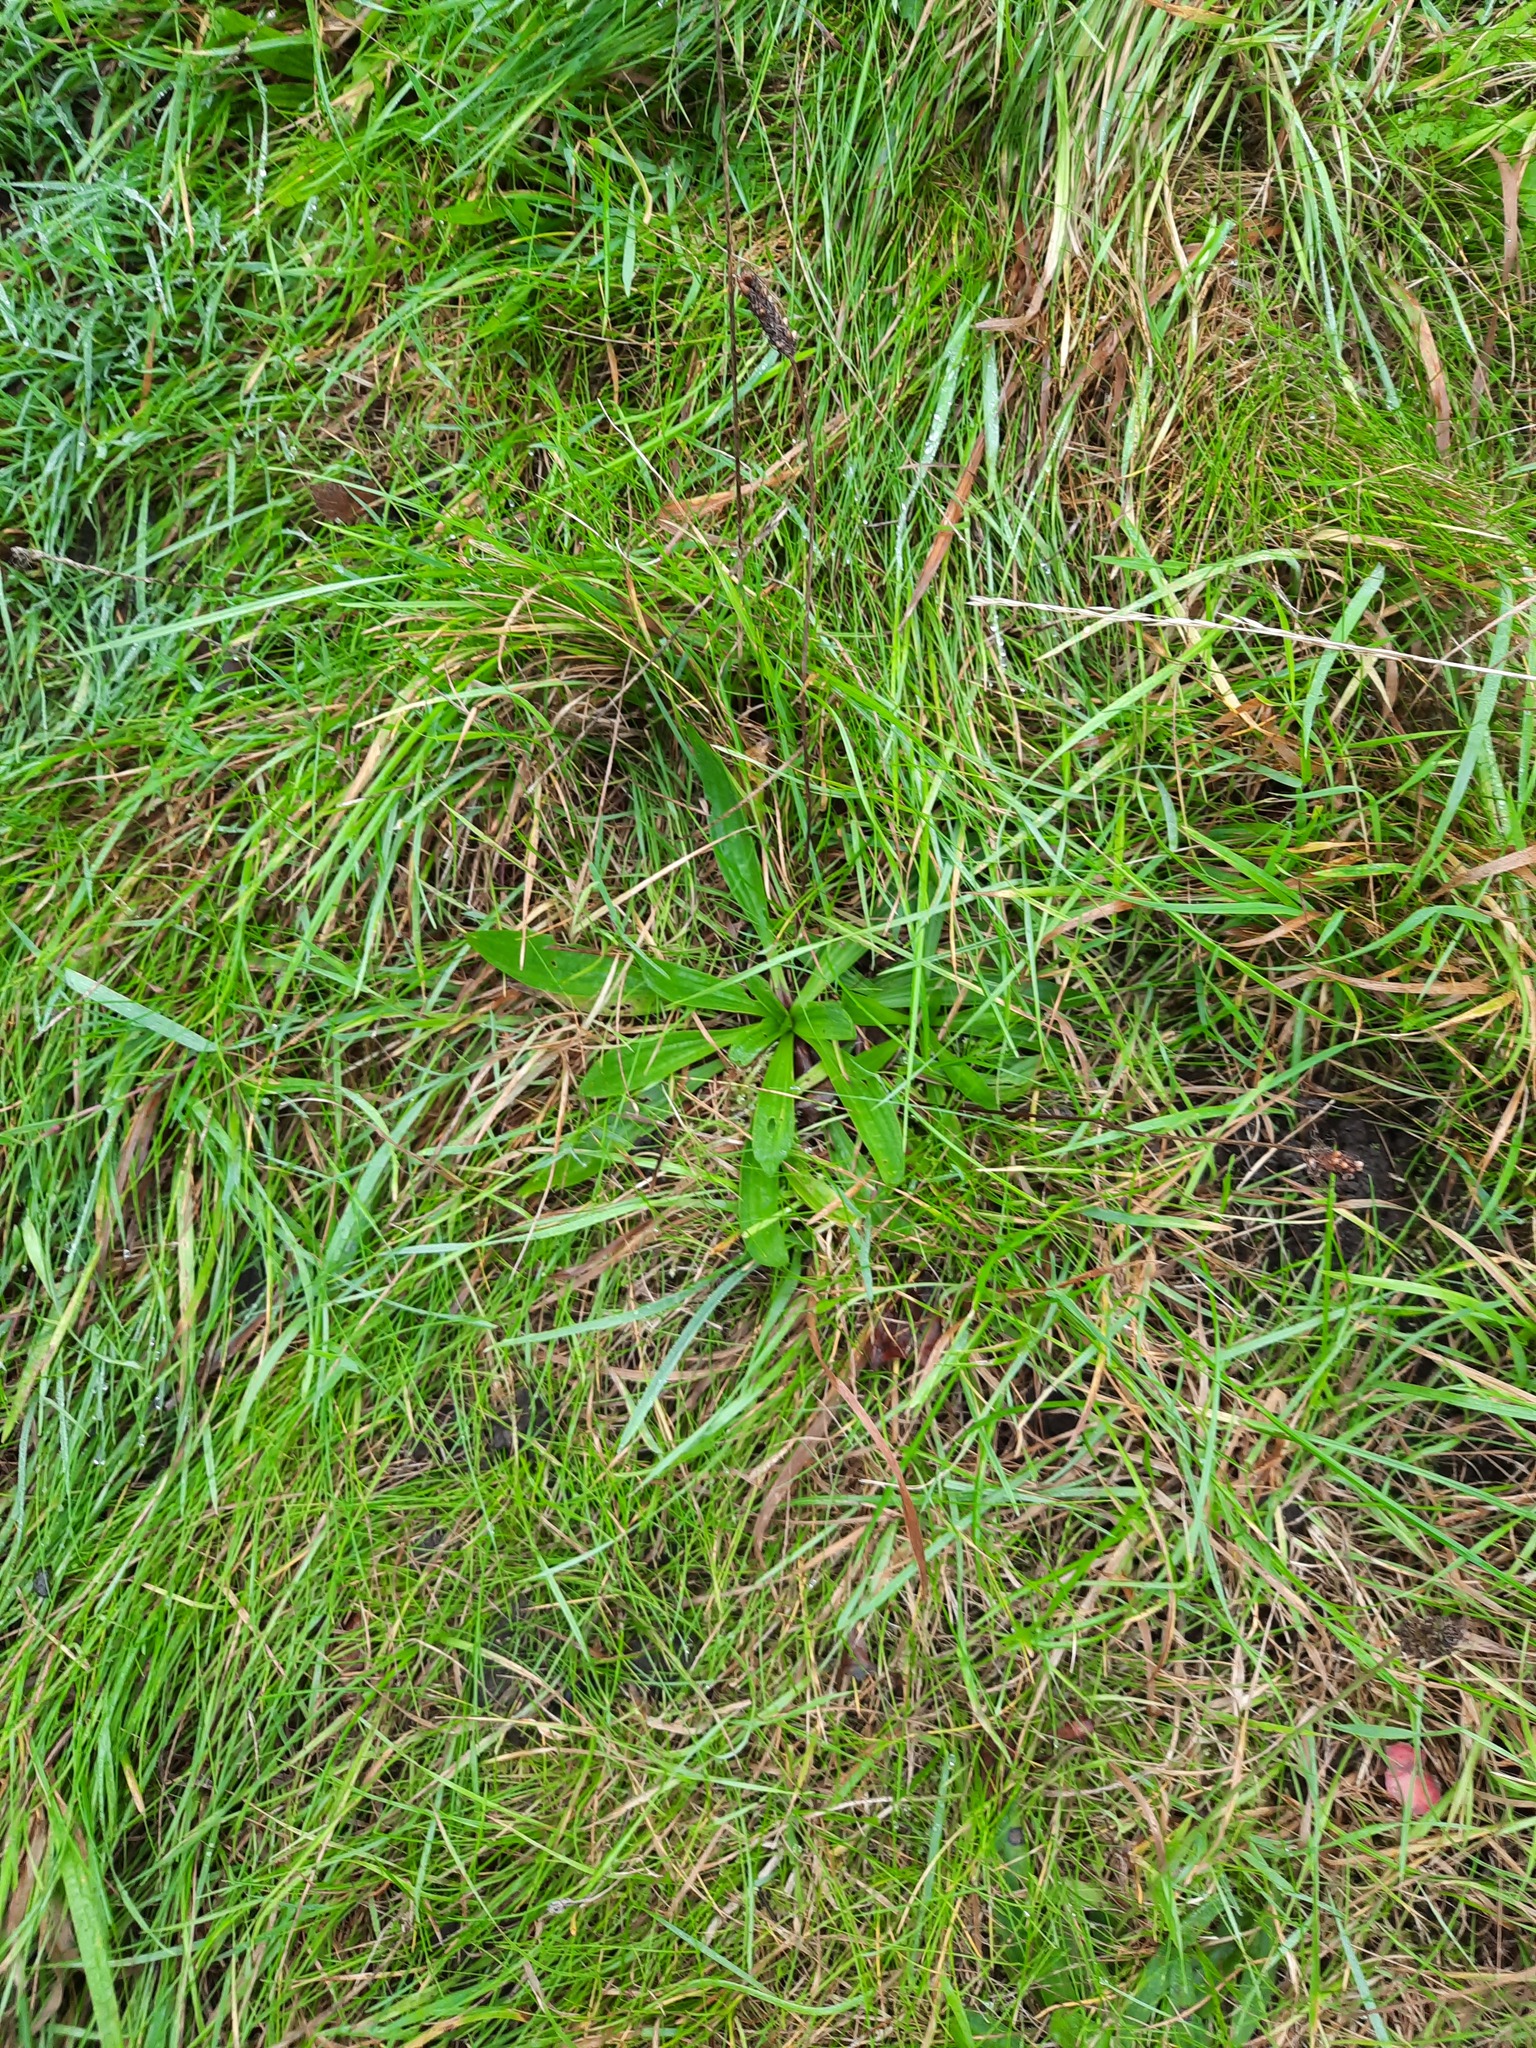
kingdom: Plantae
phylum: Tracheophyta
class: Magnoliopsida
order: Lamiales
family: Plantaginaceae
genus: Plantago
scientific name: Plantago lanceolata
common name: Ribwort plantain
